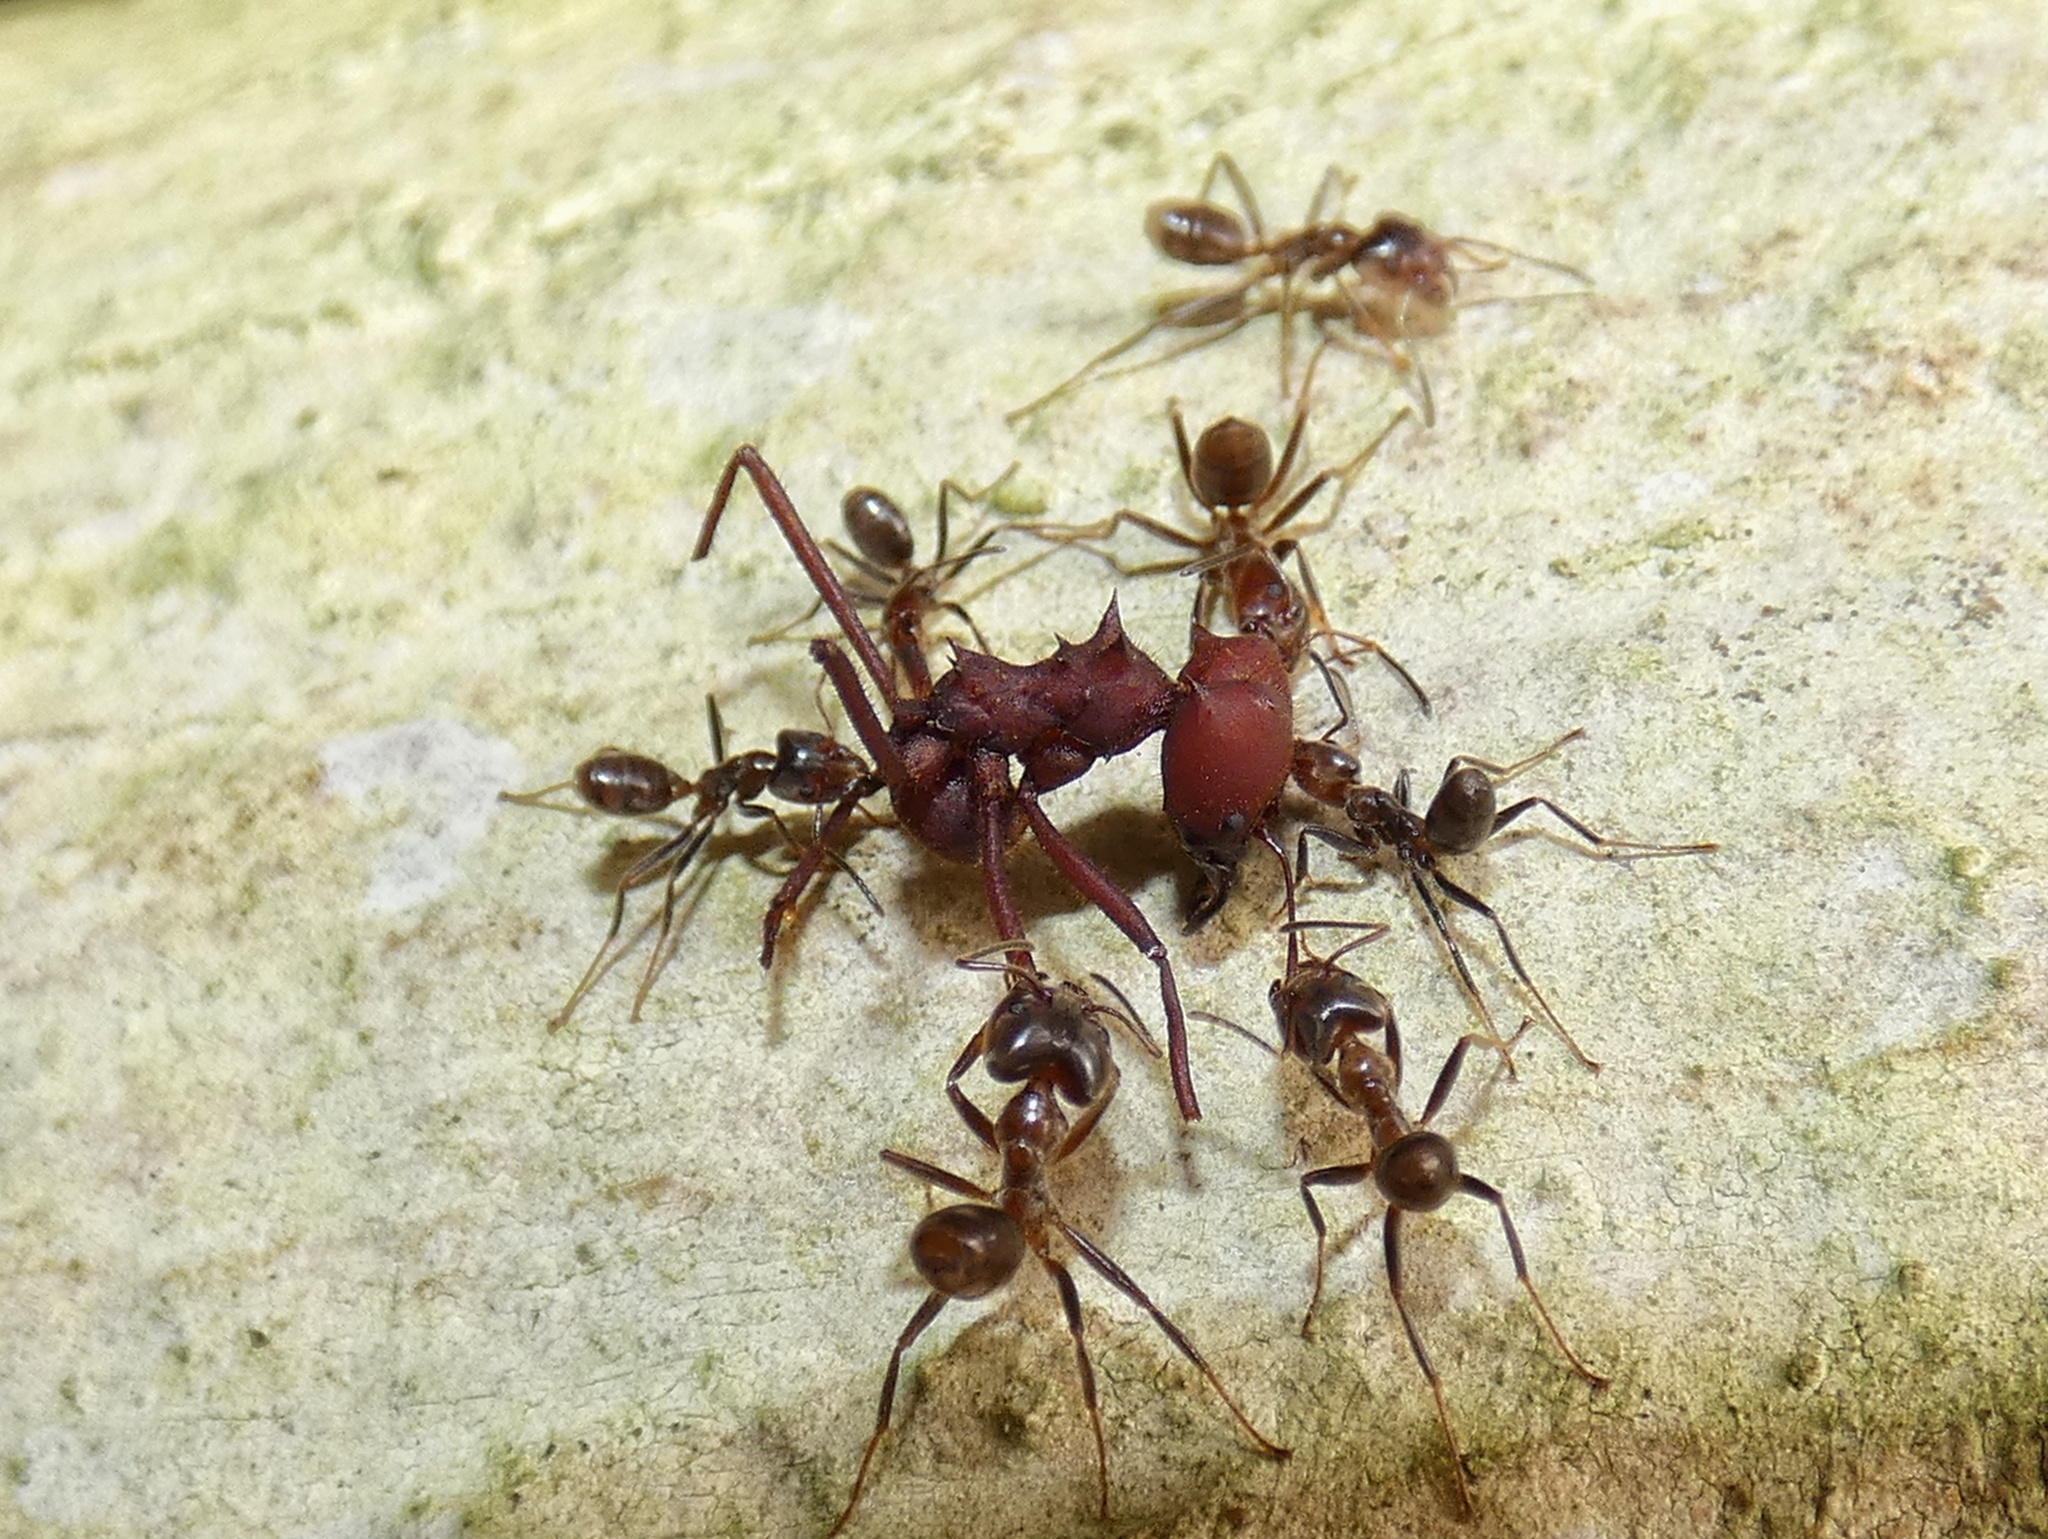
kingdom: Animalia
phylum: Arthropoda
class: Insecta
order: Hymenoptera
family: Formicidae
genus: Atta
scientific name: Atta sexdens
